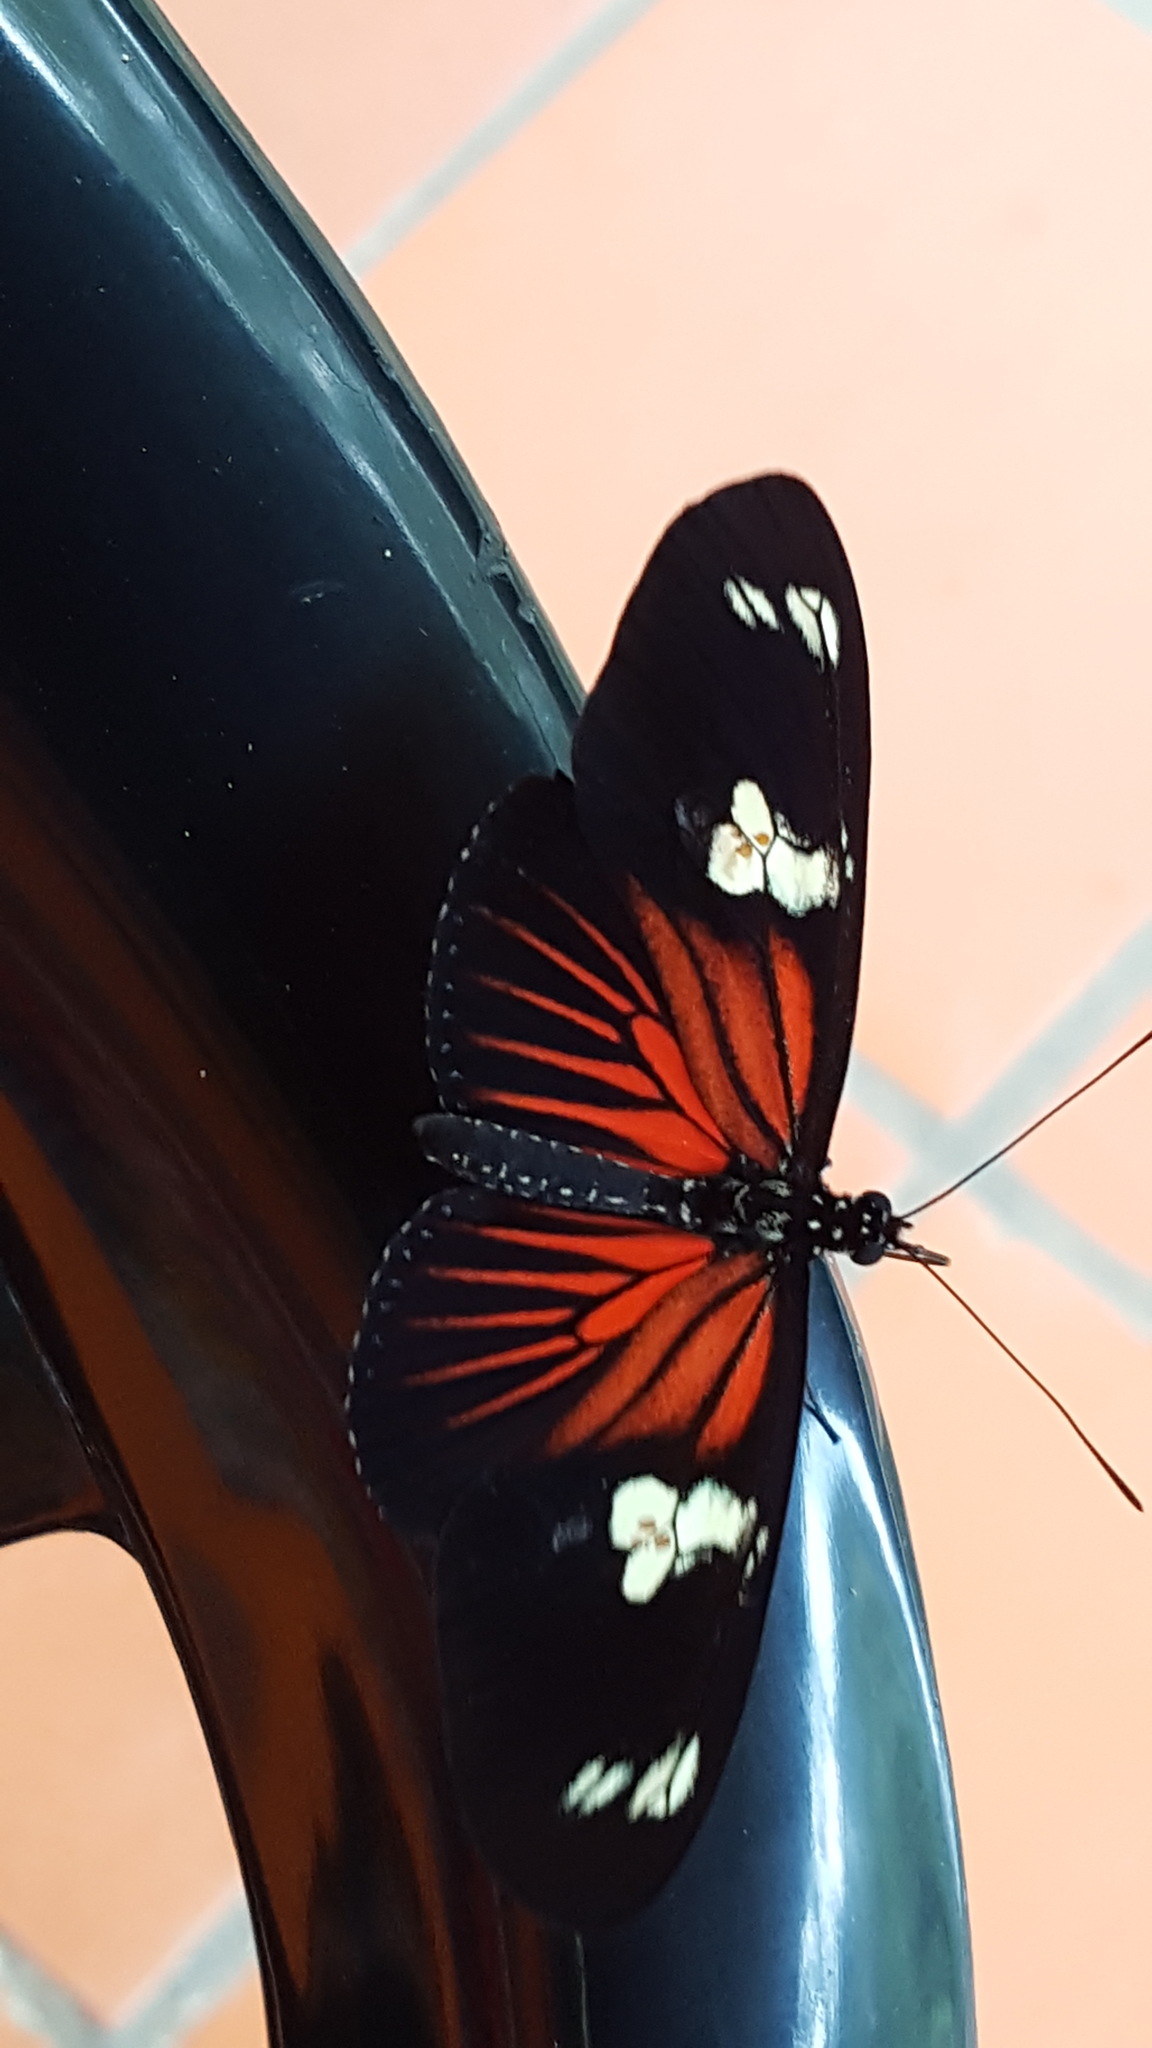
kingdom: Animalia
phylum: Arthropoda
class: Insecta
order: Lepidoptera
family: Nymphalidae
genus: Heliconius
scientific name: Heliconius doris
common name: Doris longwing
